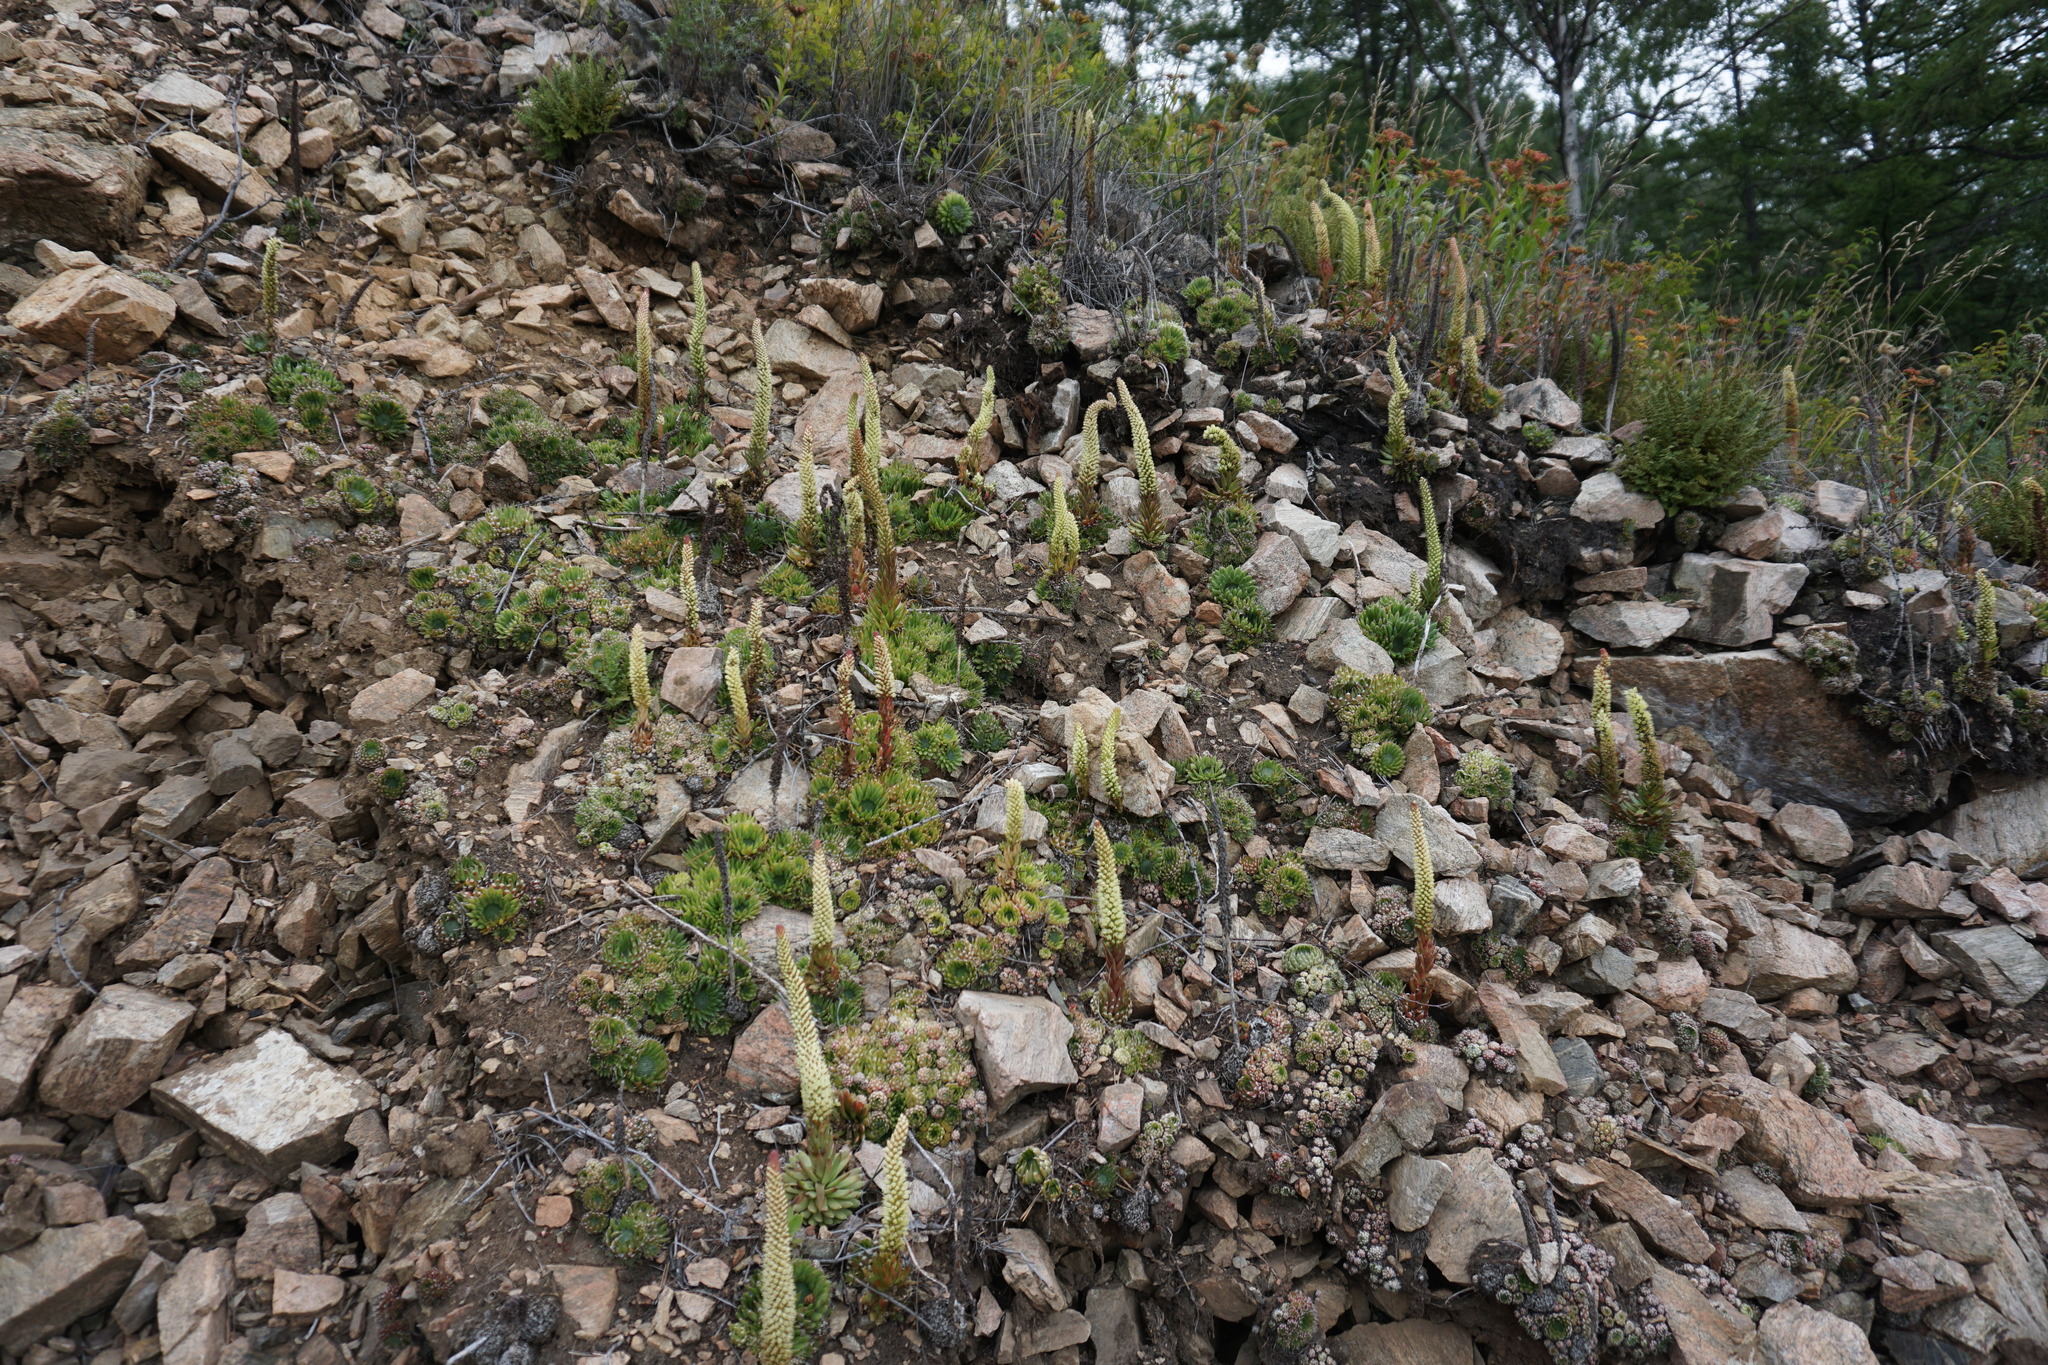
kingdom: Plantae
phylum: Tracheophyta
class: Magnoliopsida
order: Saxifragales
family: Crassulaceae
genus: Orostachys
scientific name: Orostachys spinosa
